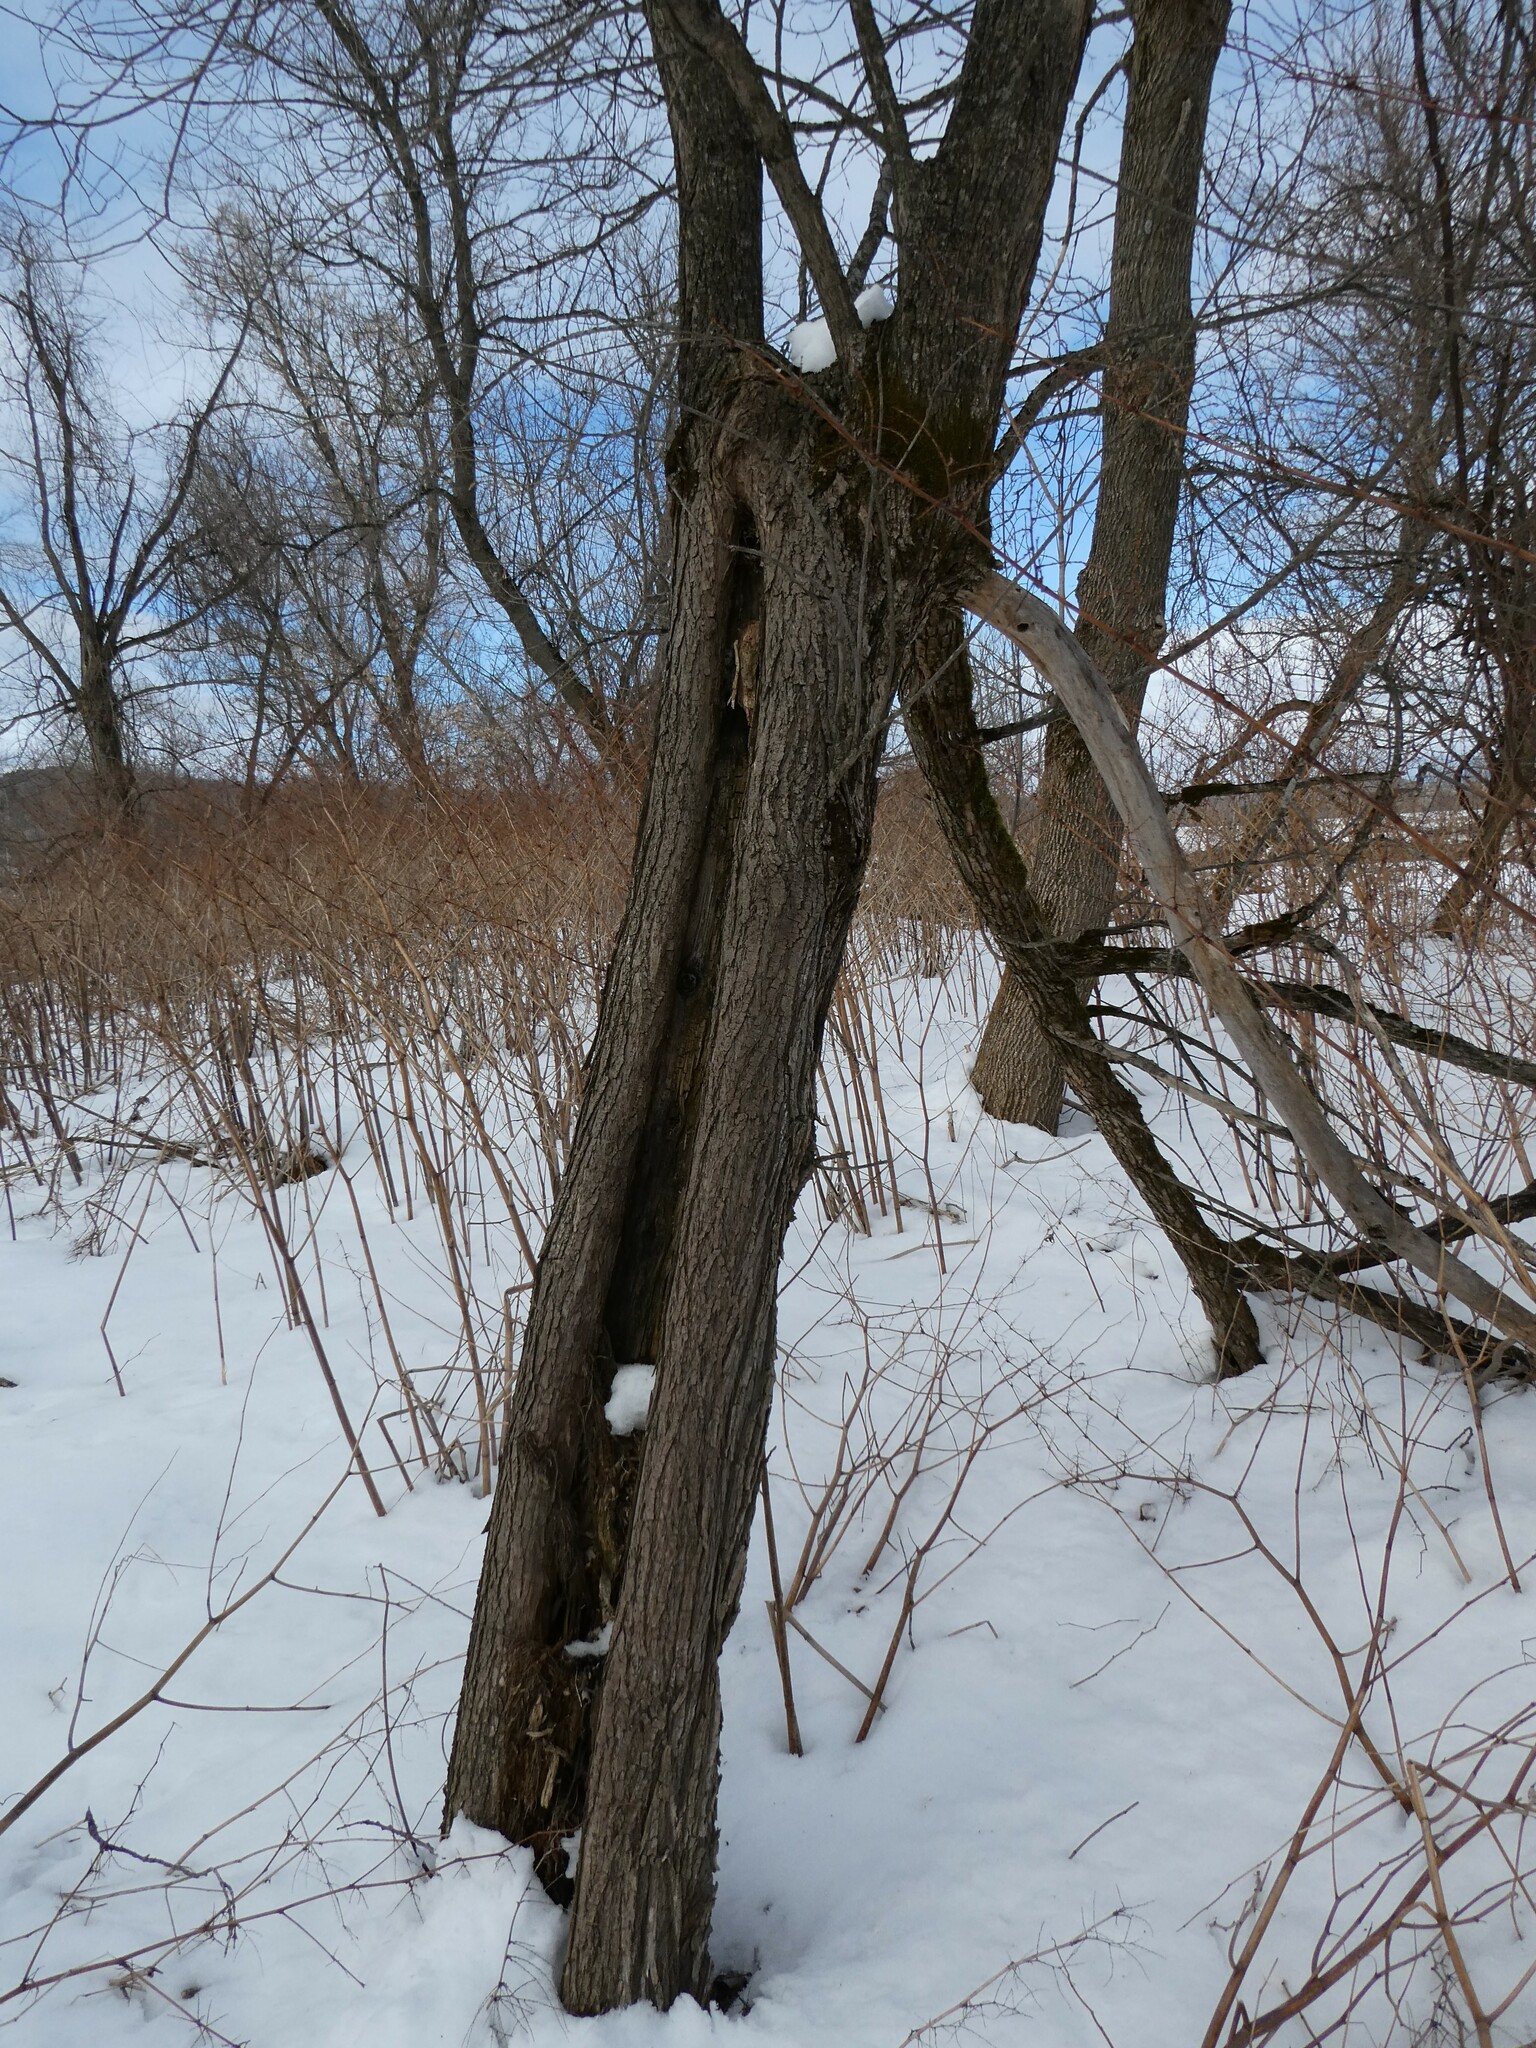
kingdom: Plantae
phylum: Tracheophyta
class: Magnoliopsida
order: Malpighiales
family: Salicaceae
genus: Salix
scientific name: Salix fragilis
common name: Crack willow
